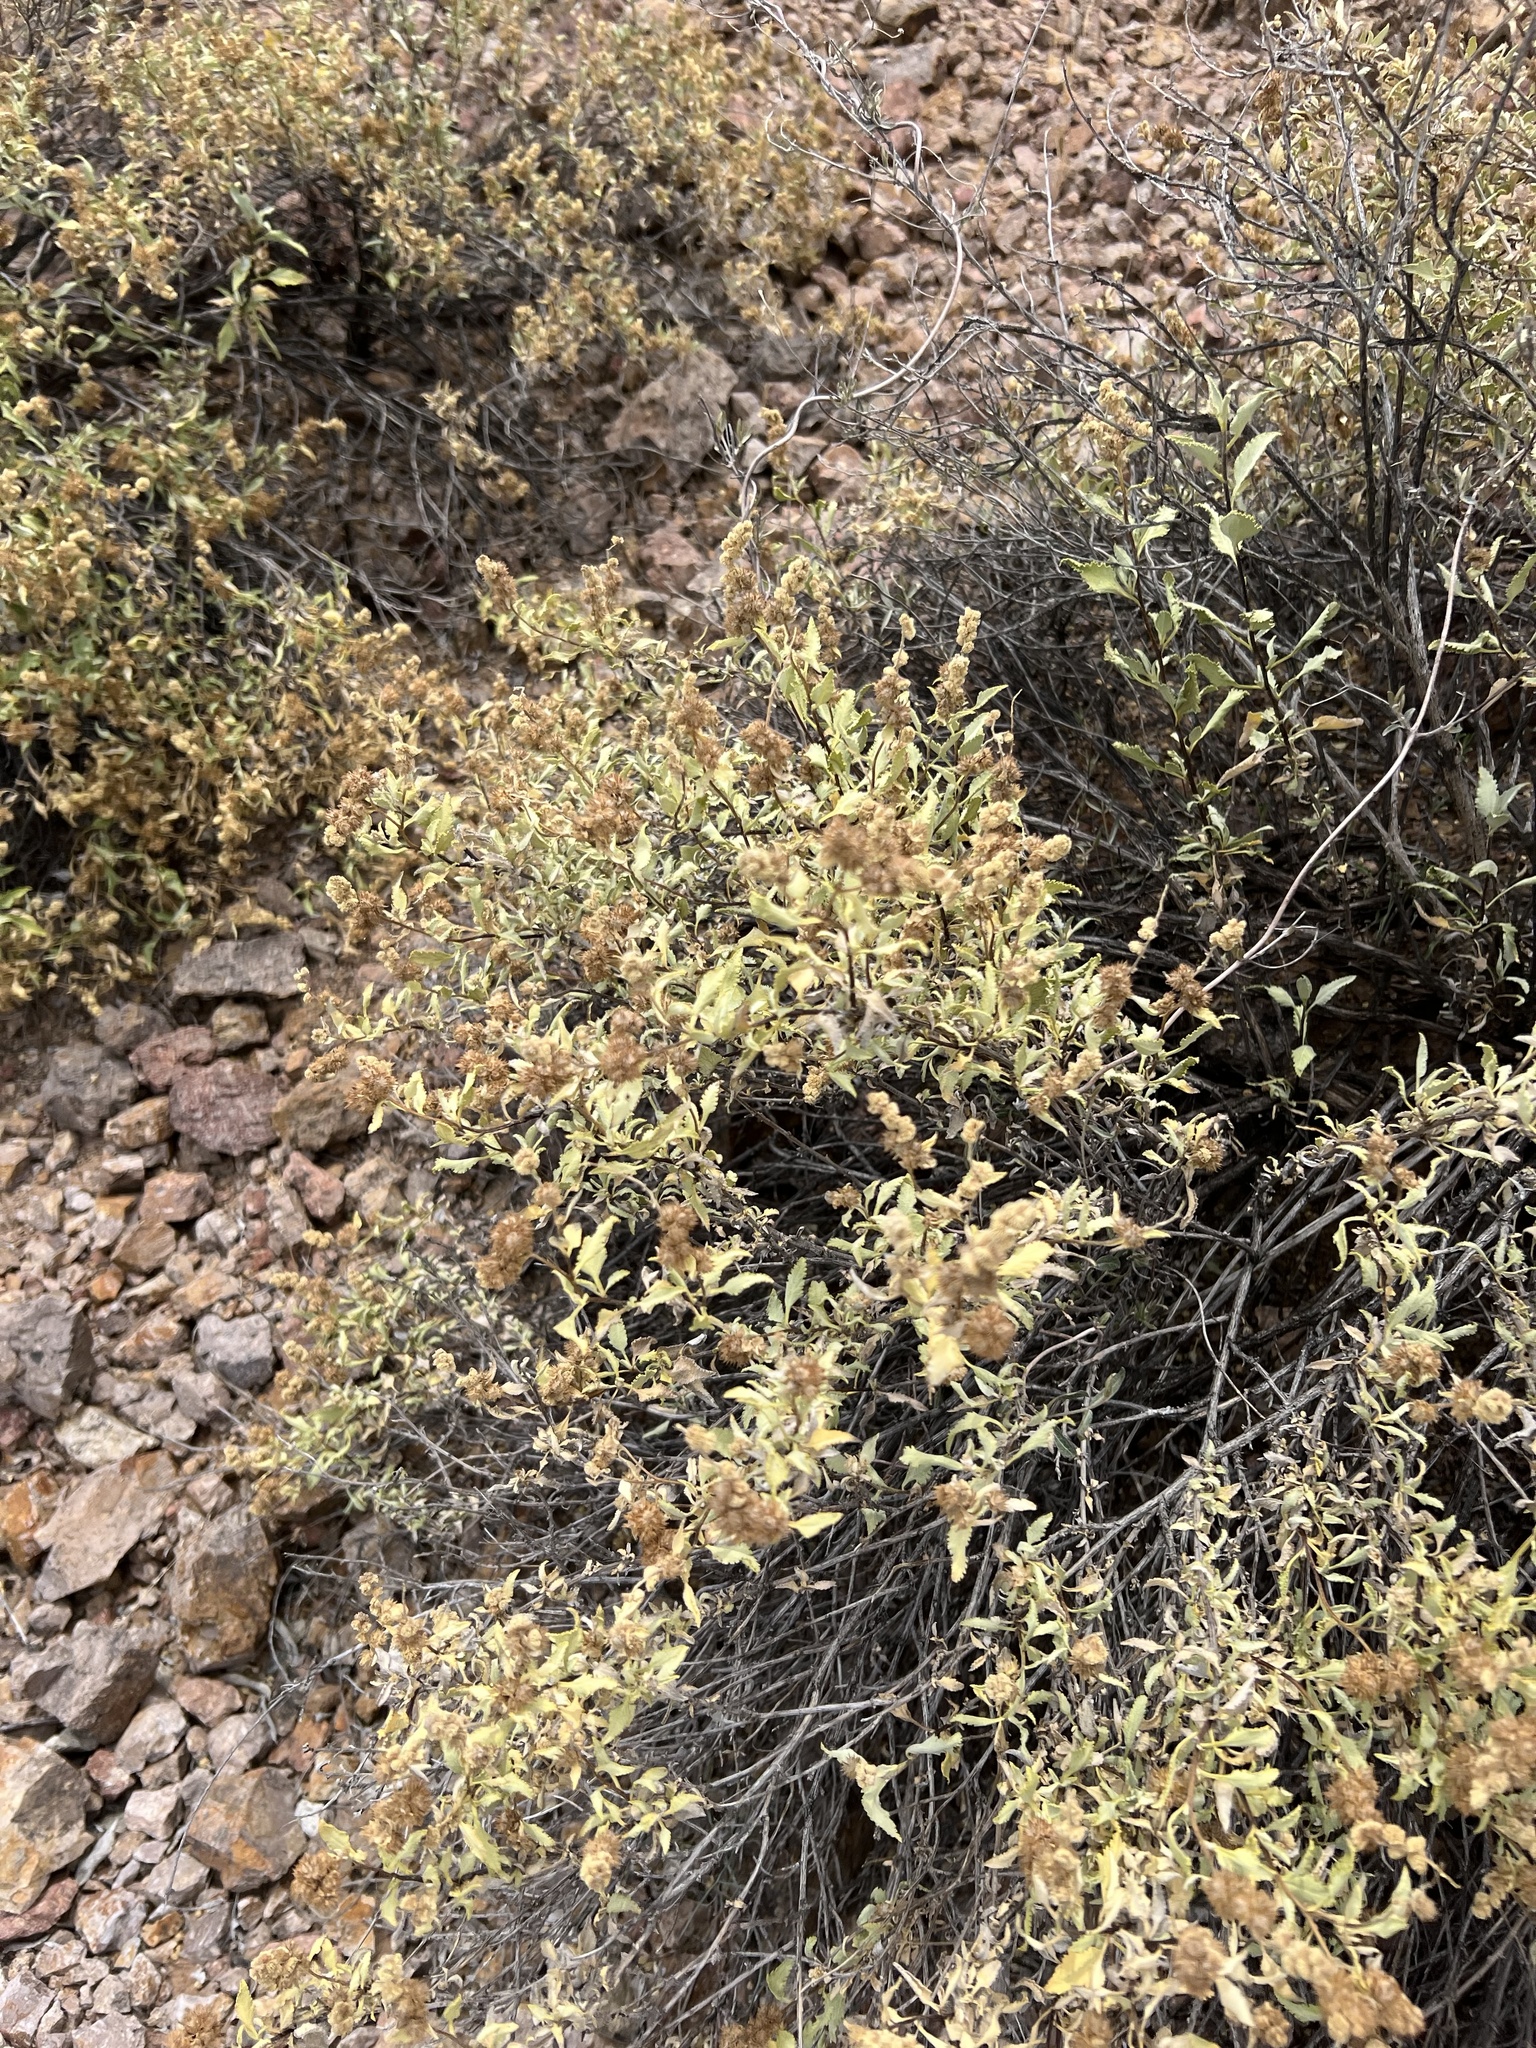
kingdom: Plantae
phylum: Tracheophyta
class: Magnoliopsida
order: Asterales
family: Asteraceae
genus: Ambrosia
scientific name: Ambrosia deltoidea
